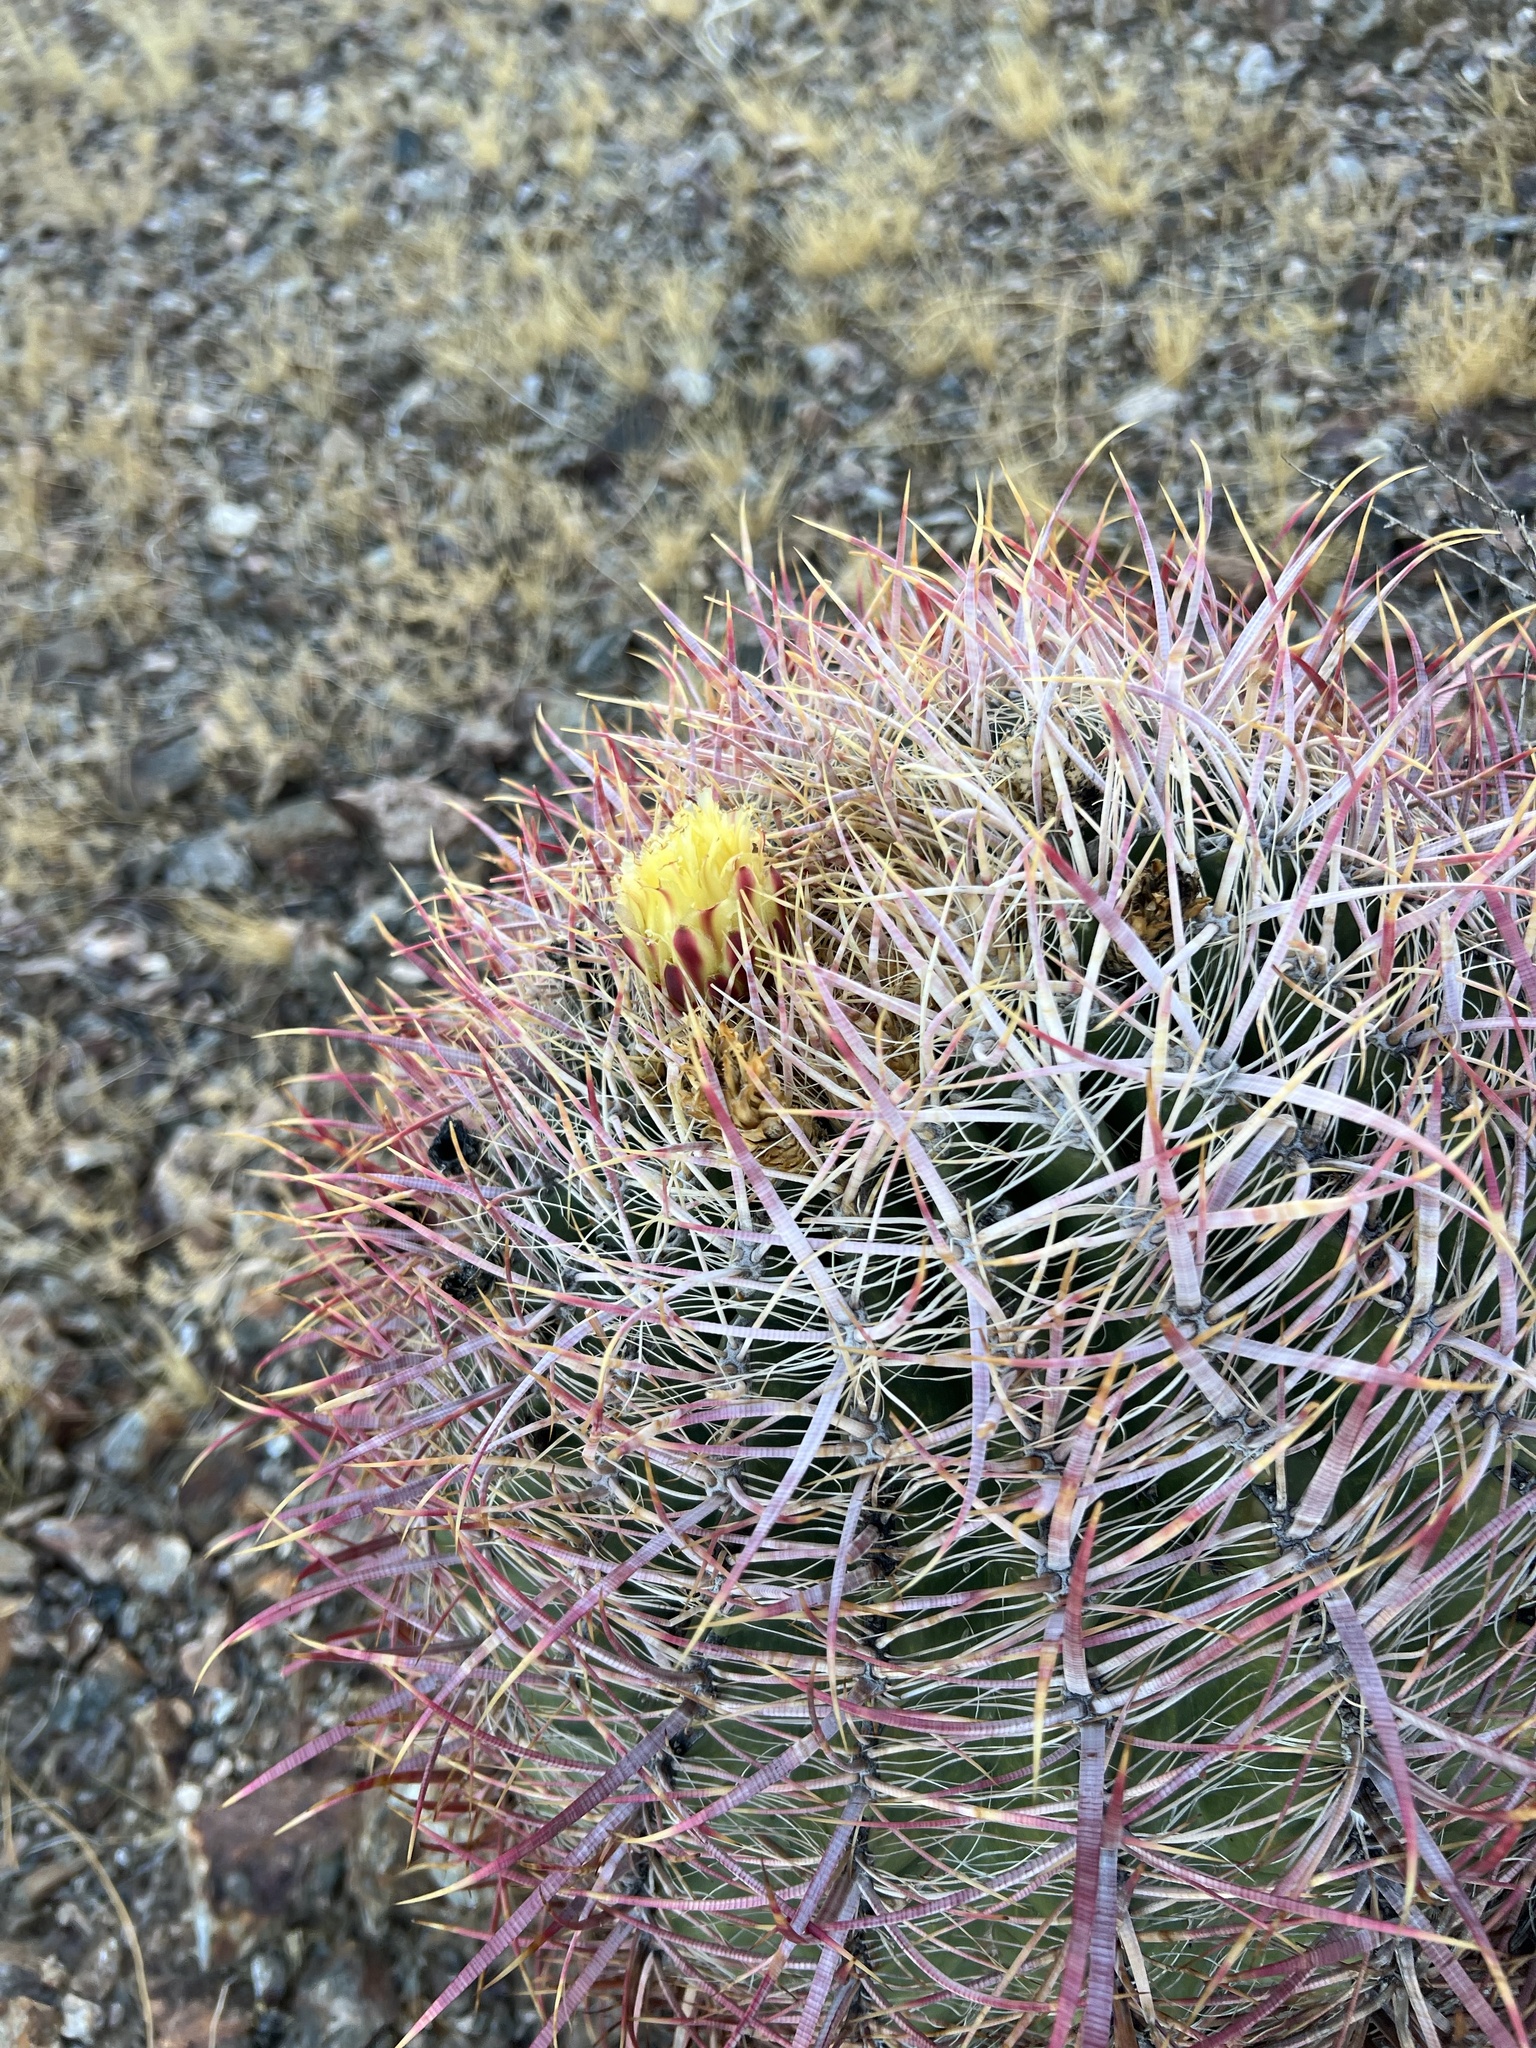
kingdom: Plantae
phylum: Tracheophyta
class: Magnoliopsida
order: Caryophyllales
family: Cactaceae
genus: Ferocactus
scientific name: Ferocactus cylindraceus
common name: California barrel cactus
